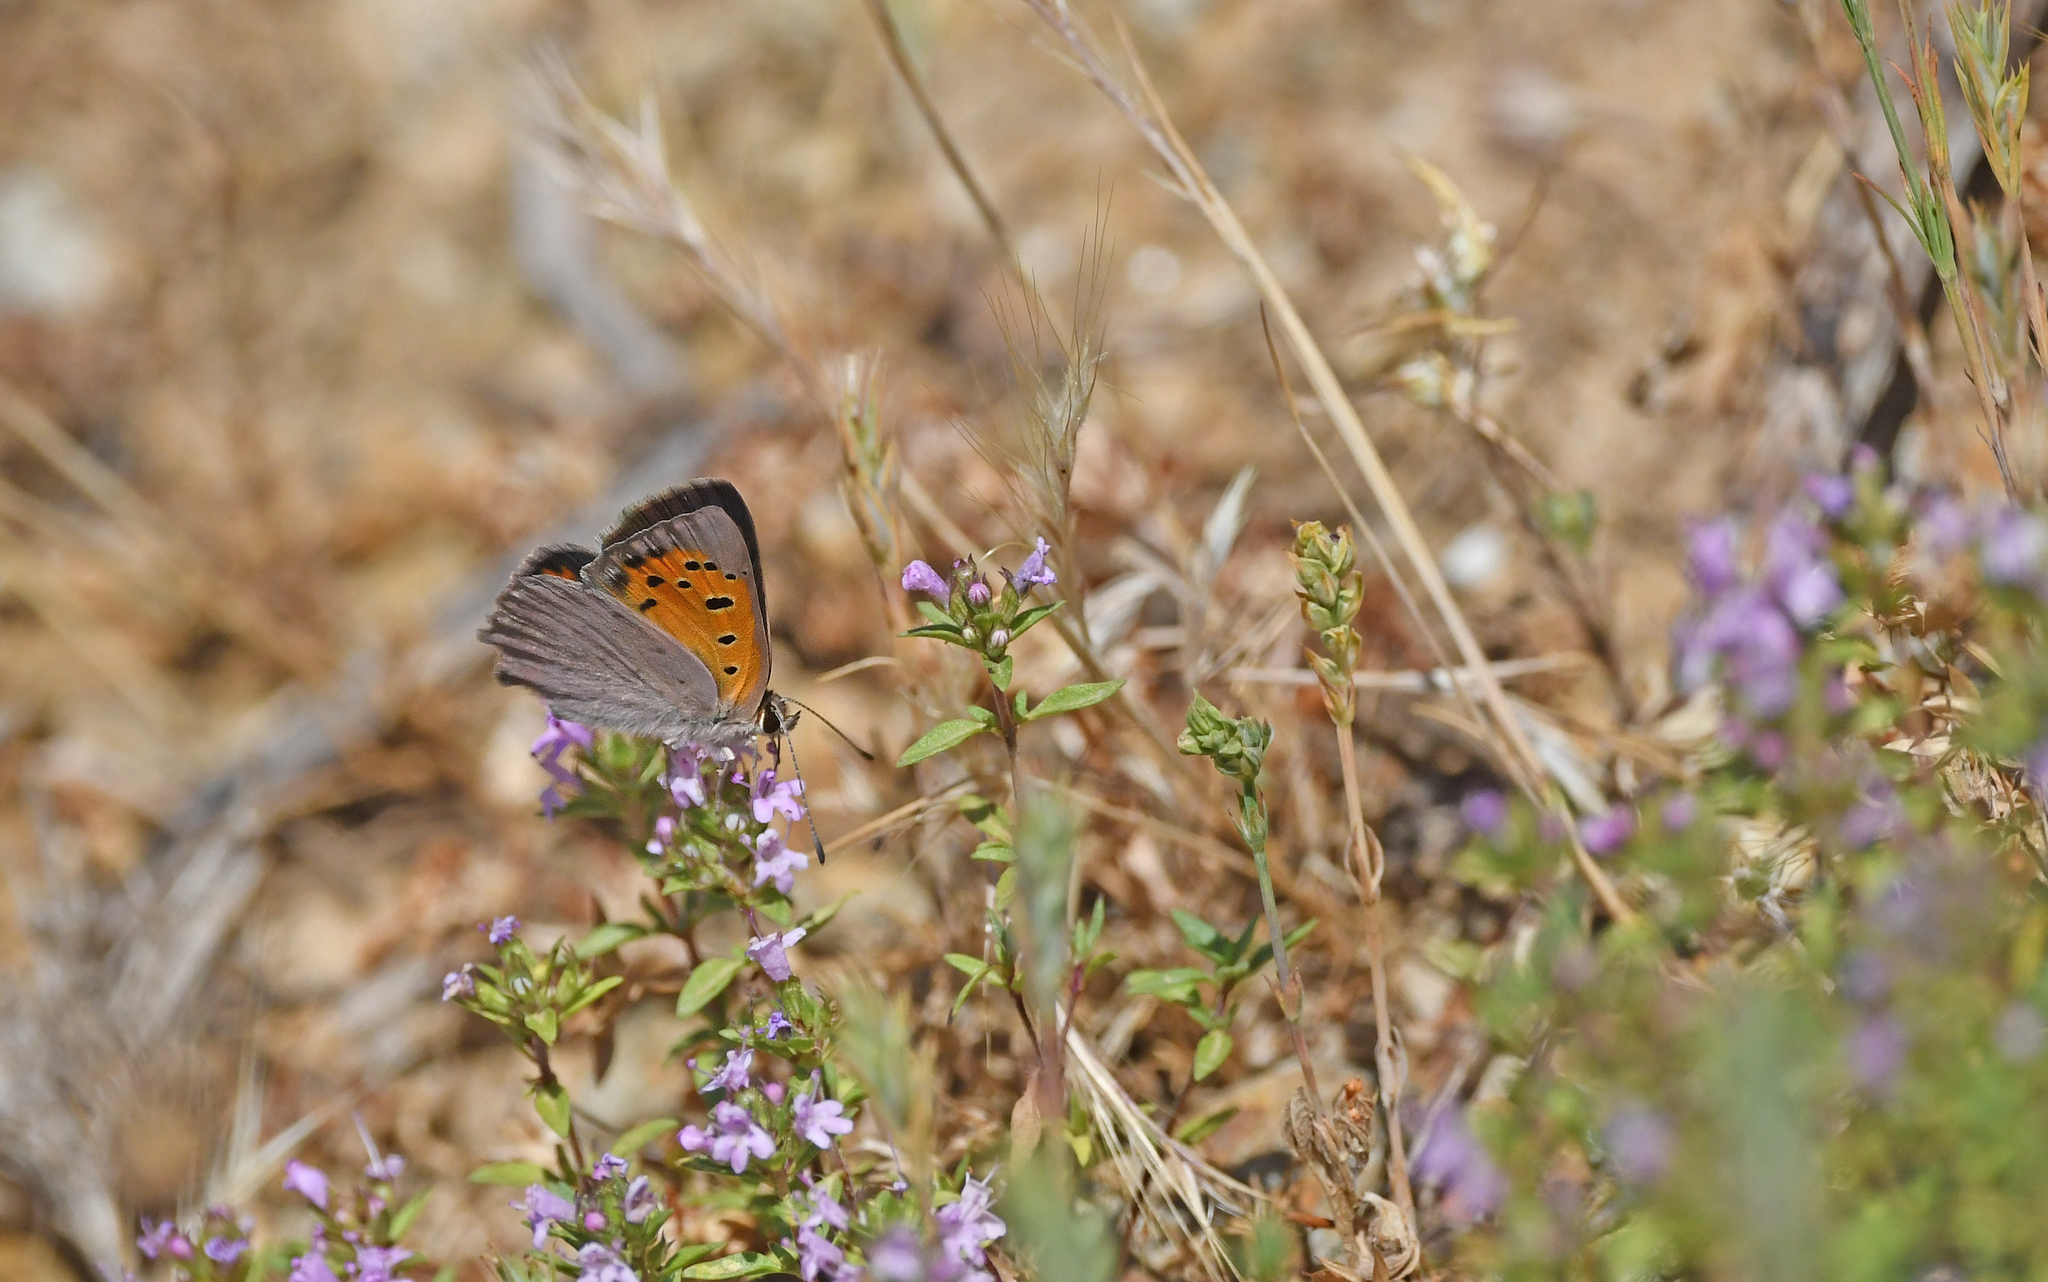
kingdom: Animalia
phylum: Arthropoda
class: Insecta
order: Lepidoptera
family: Lycaenidae
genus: Lycaena
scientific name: Lycaena phlaeas
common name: Small copper
